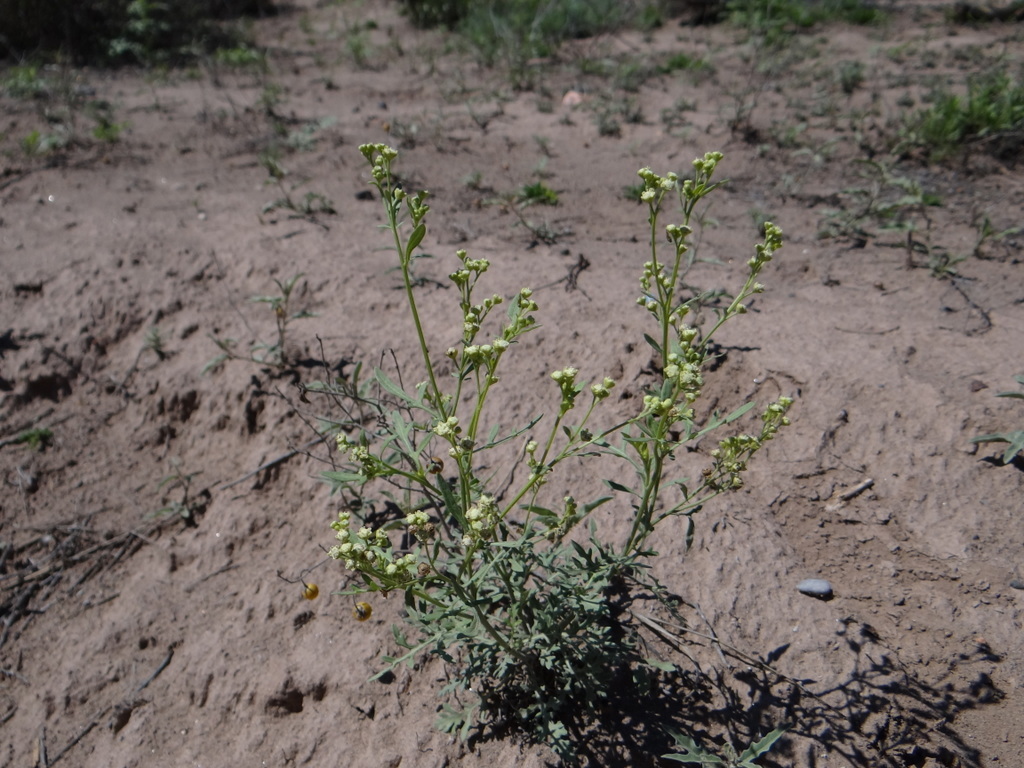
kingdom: Plantae
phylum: Tracheophyta
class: Magnoliopsida
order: Asterales
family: Asteraceae
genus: Parthenium
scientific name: Parthenium hysterophorus
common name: Santa maria feverfew
